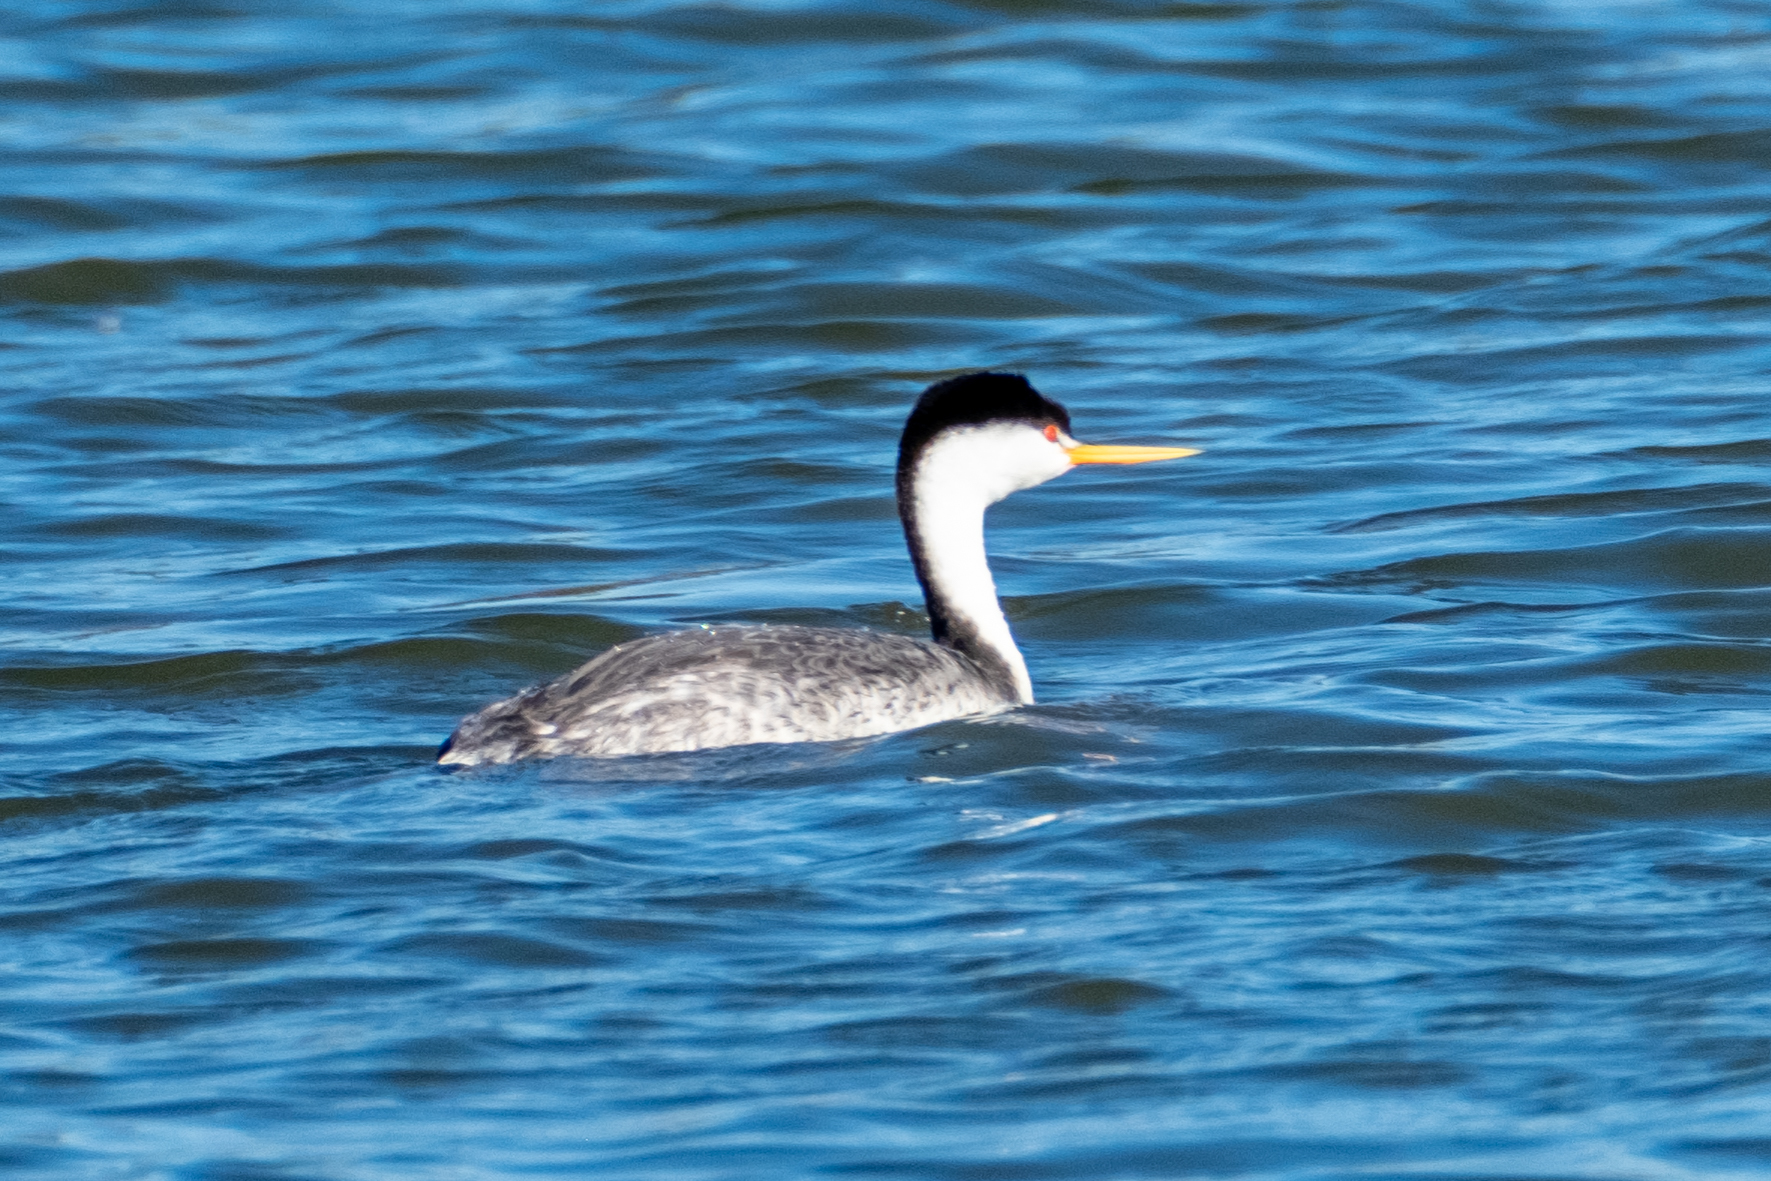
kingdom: Animalia
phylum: Chordata
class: Aves
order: Podicipediformes
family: Podicipedidae
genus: Aechmophorus
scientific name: Aechmophorus clarkii
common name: Clark's grebe
